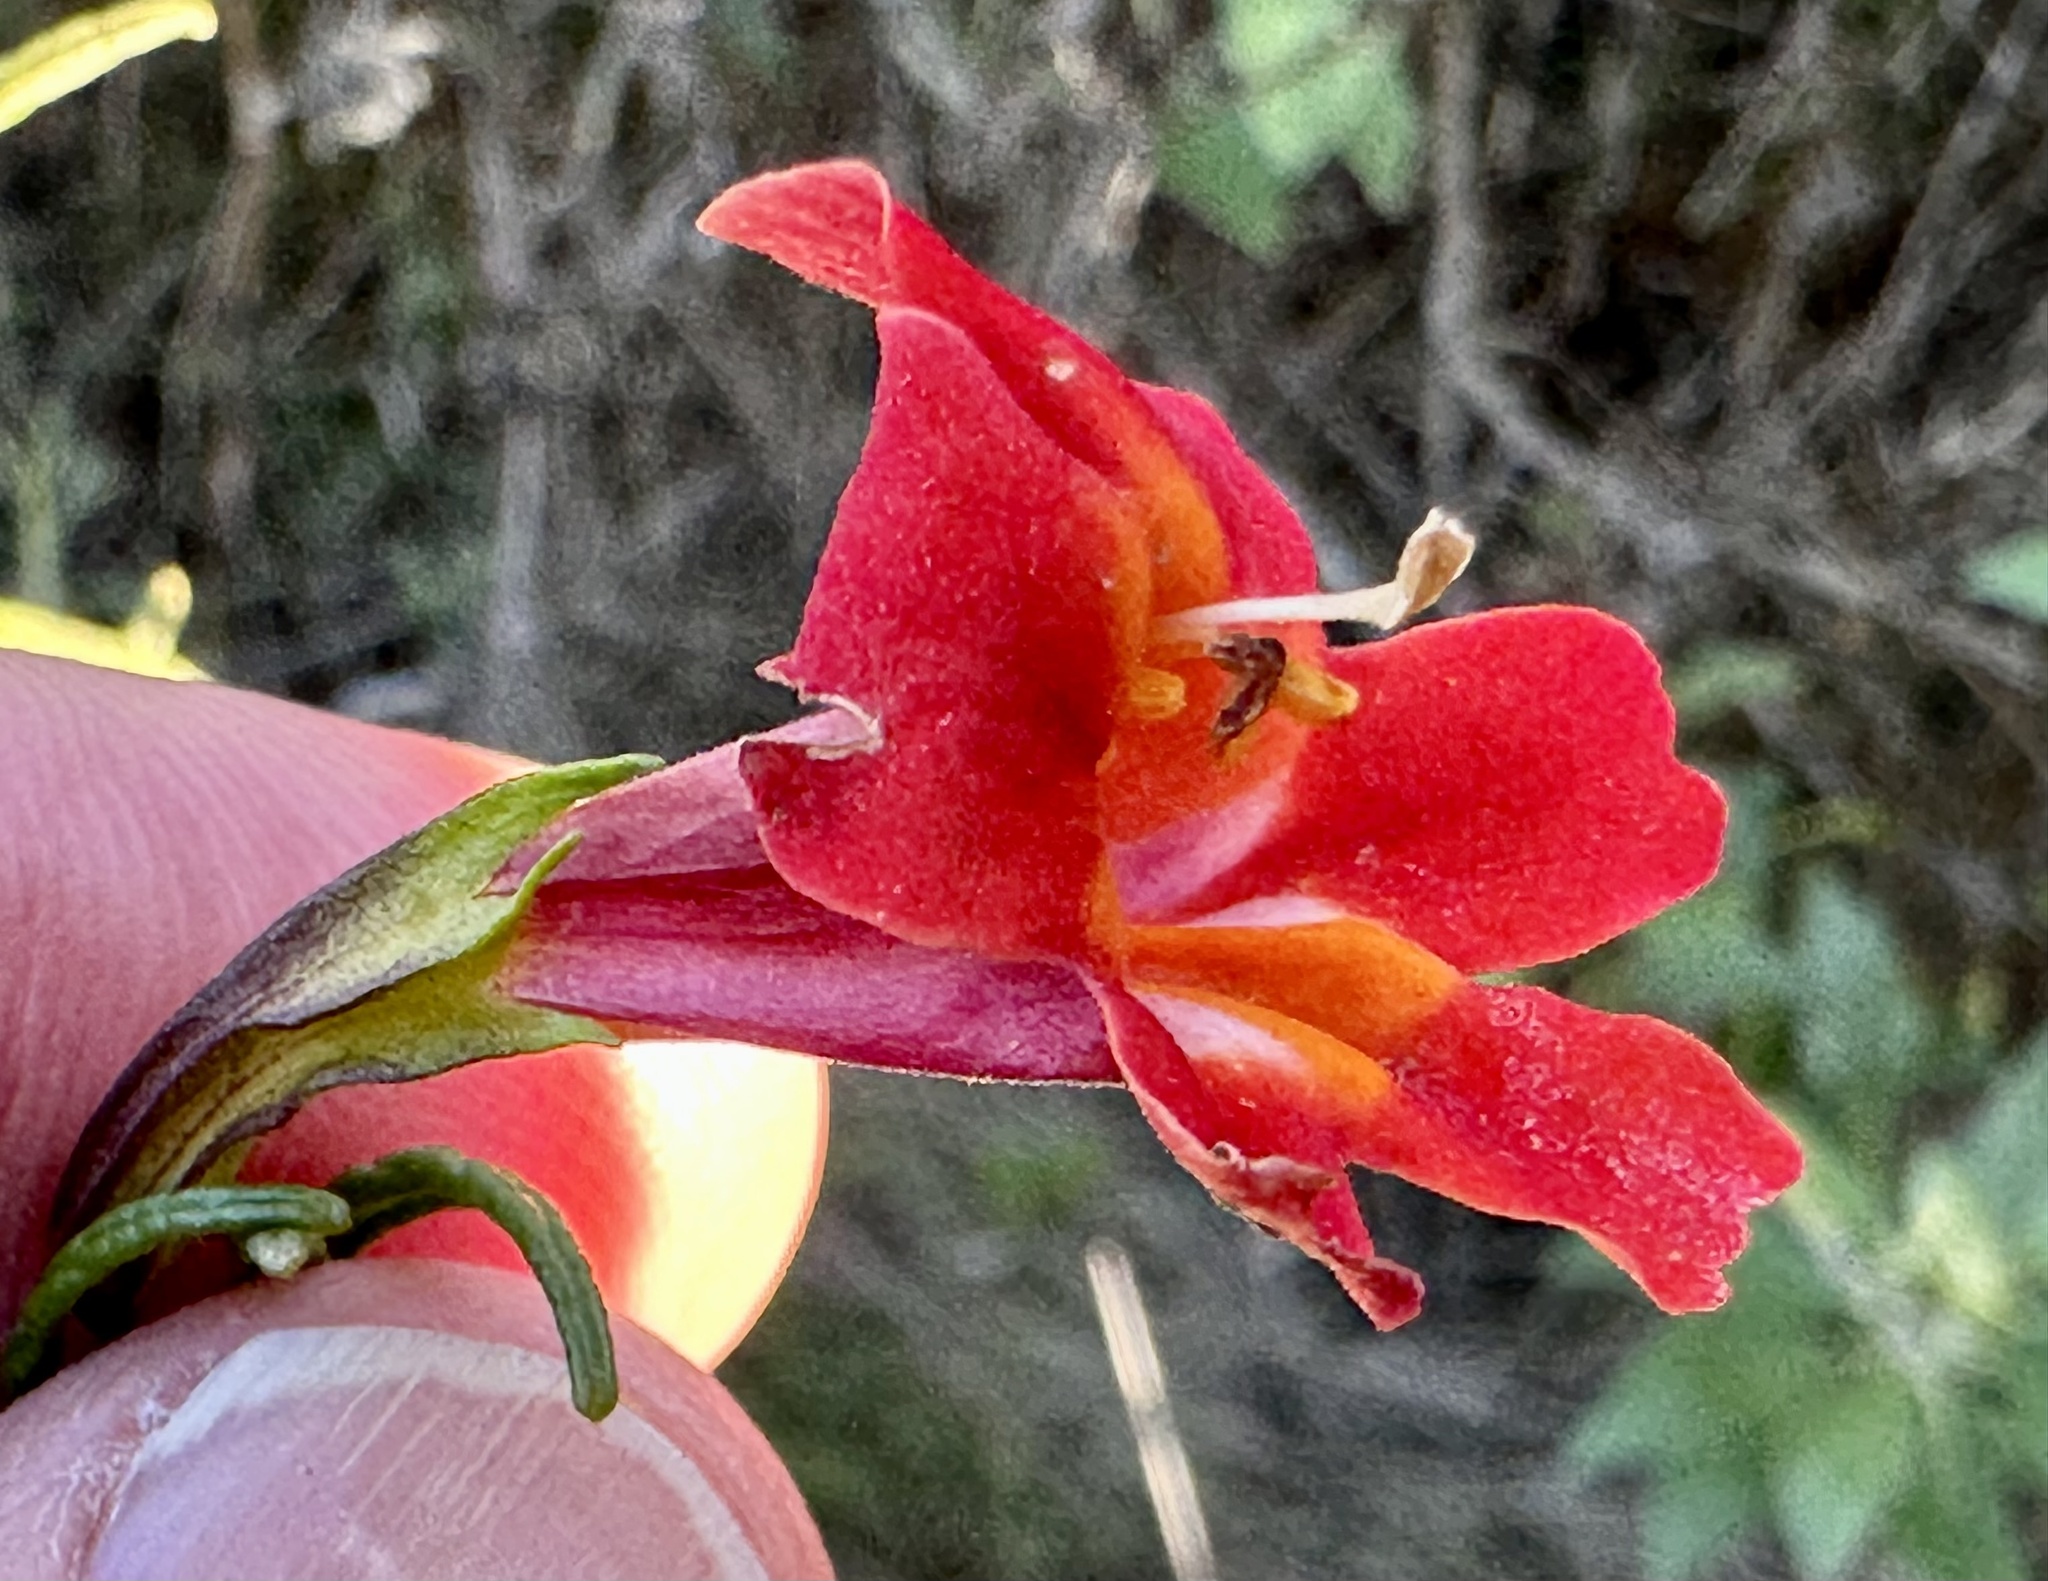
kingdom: Plantae
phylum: Tracheophyta
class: Magnoliopsida
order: Lamiales
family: Phrymaceae
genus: Diplacus
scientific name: Diplacus puniceus
